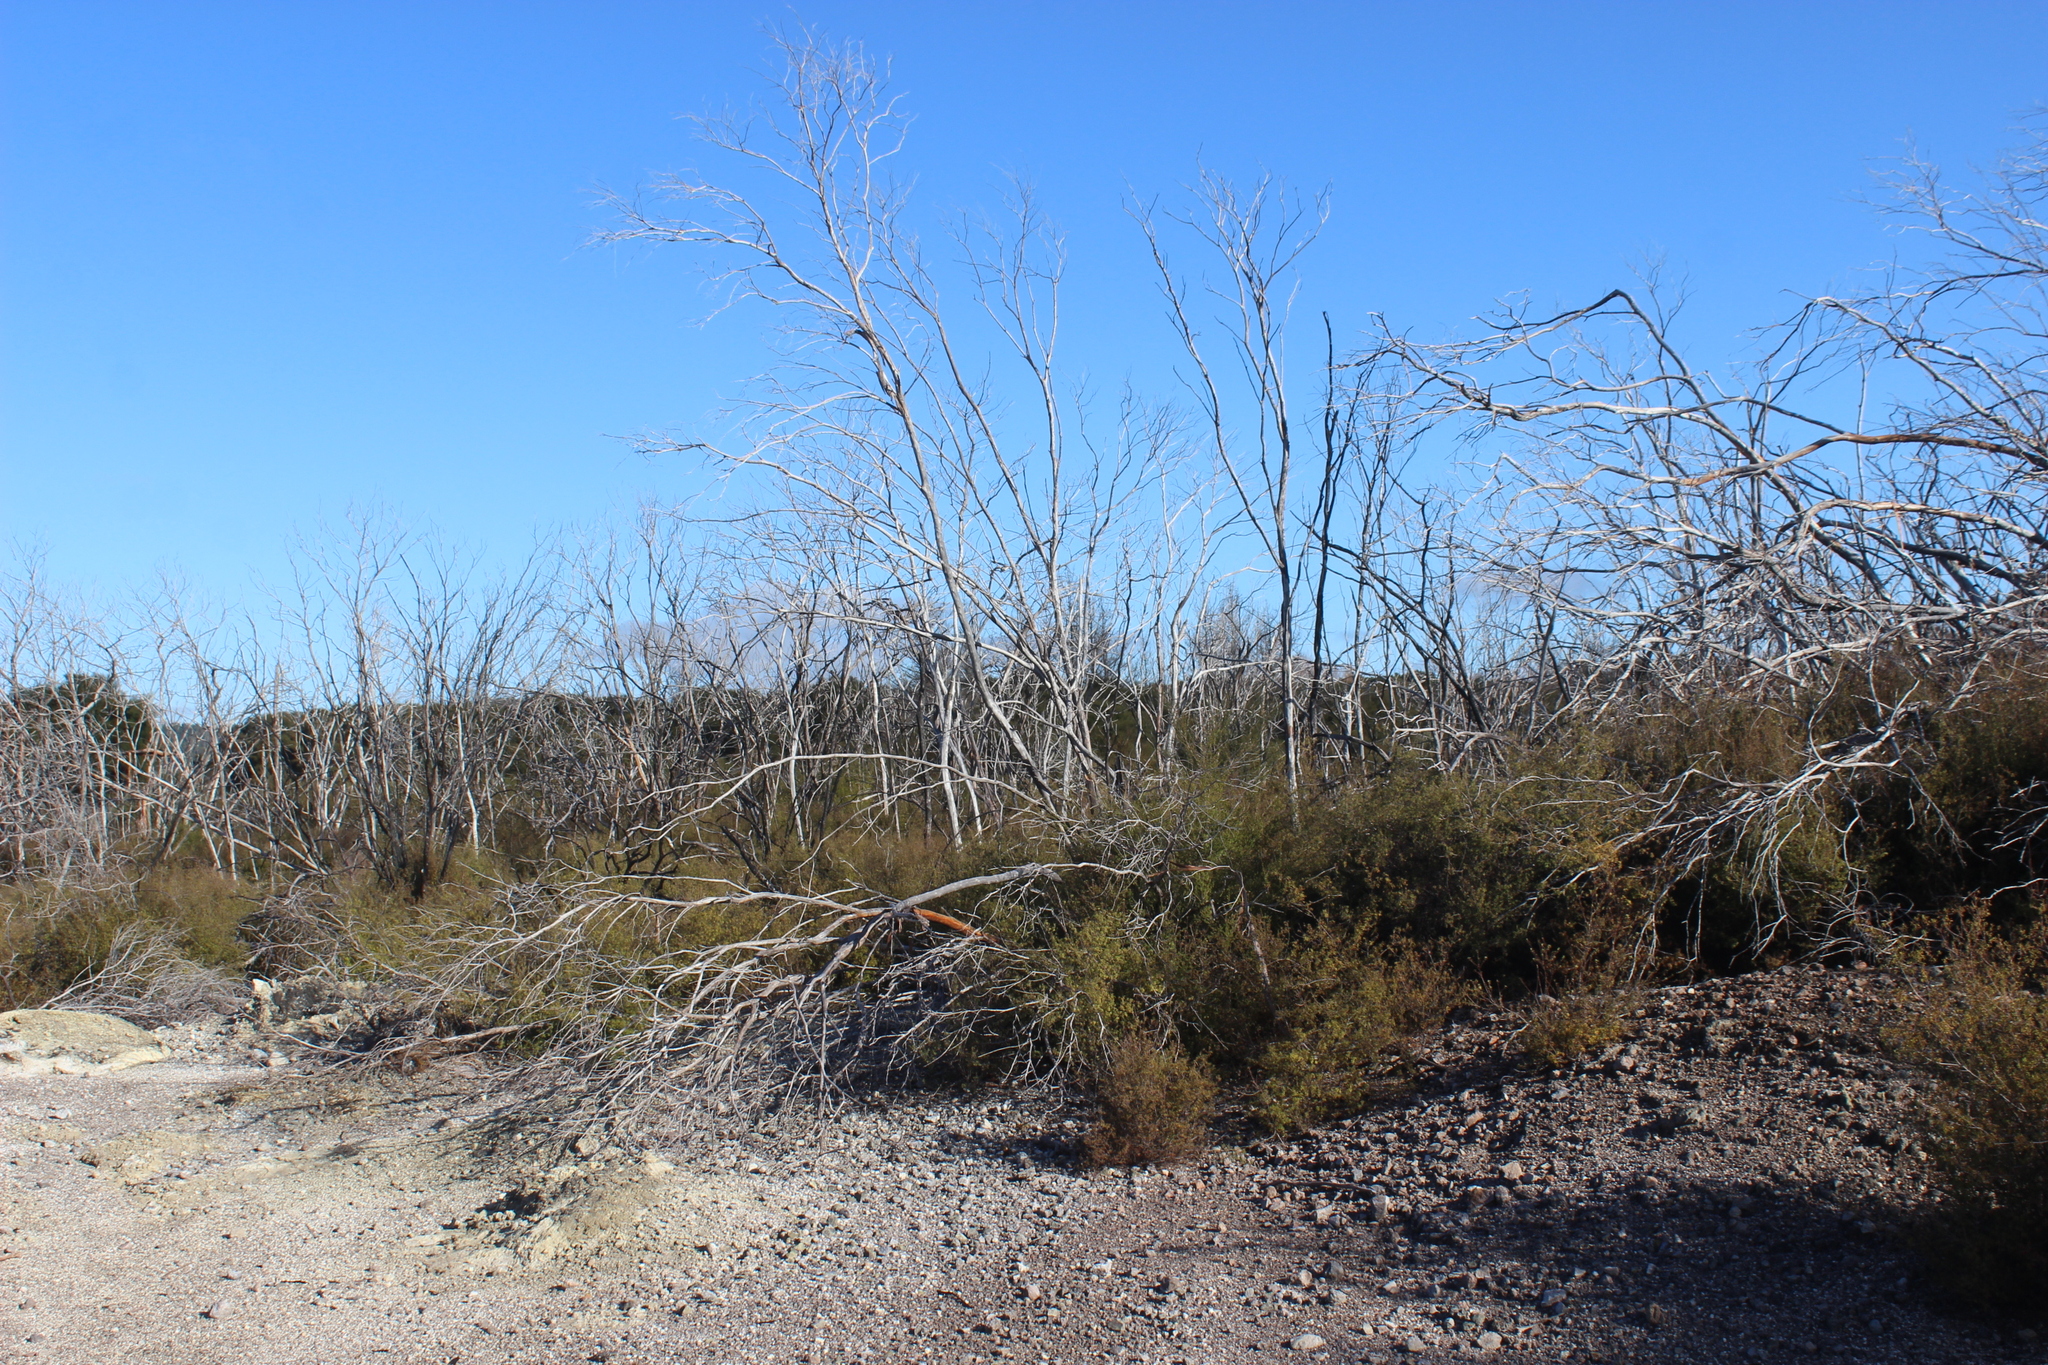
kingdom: Plantae
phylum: Tracheophyta
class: Magnoliopsida
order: Myrtales
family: Myrtaceae
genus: Leptospermum
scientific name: Leptospermum scoparium
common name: Broom tea-tree
